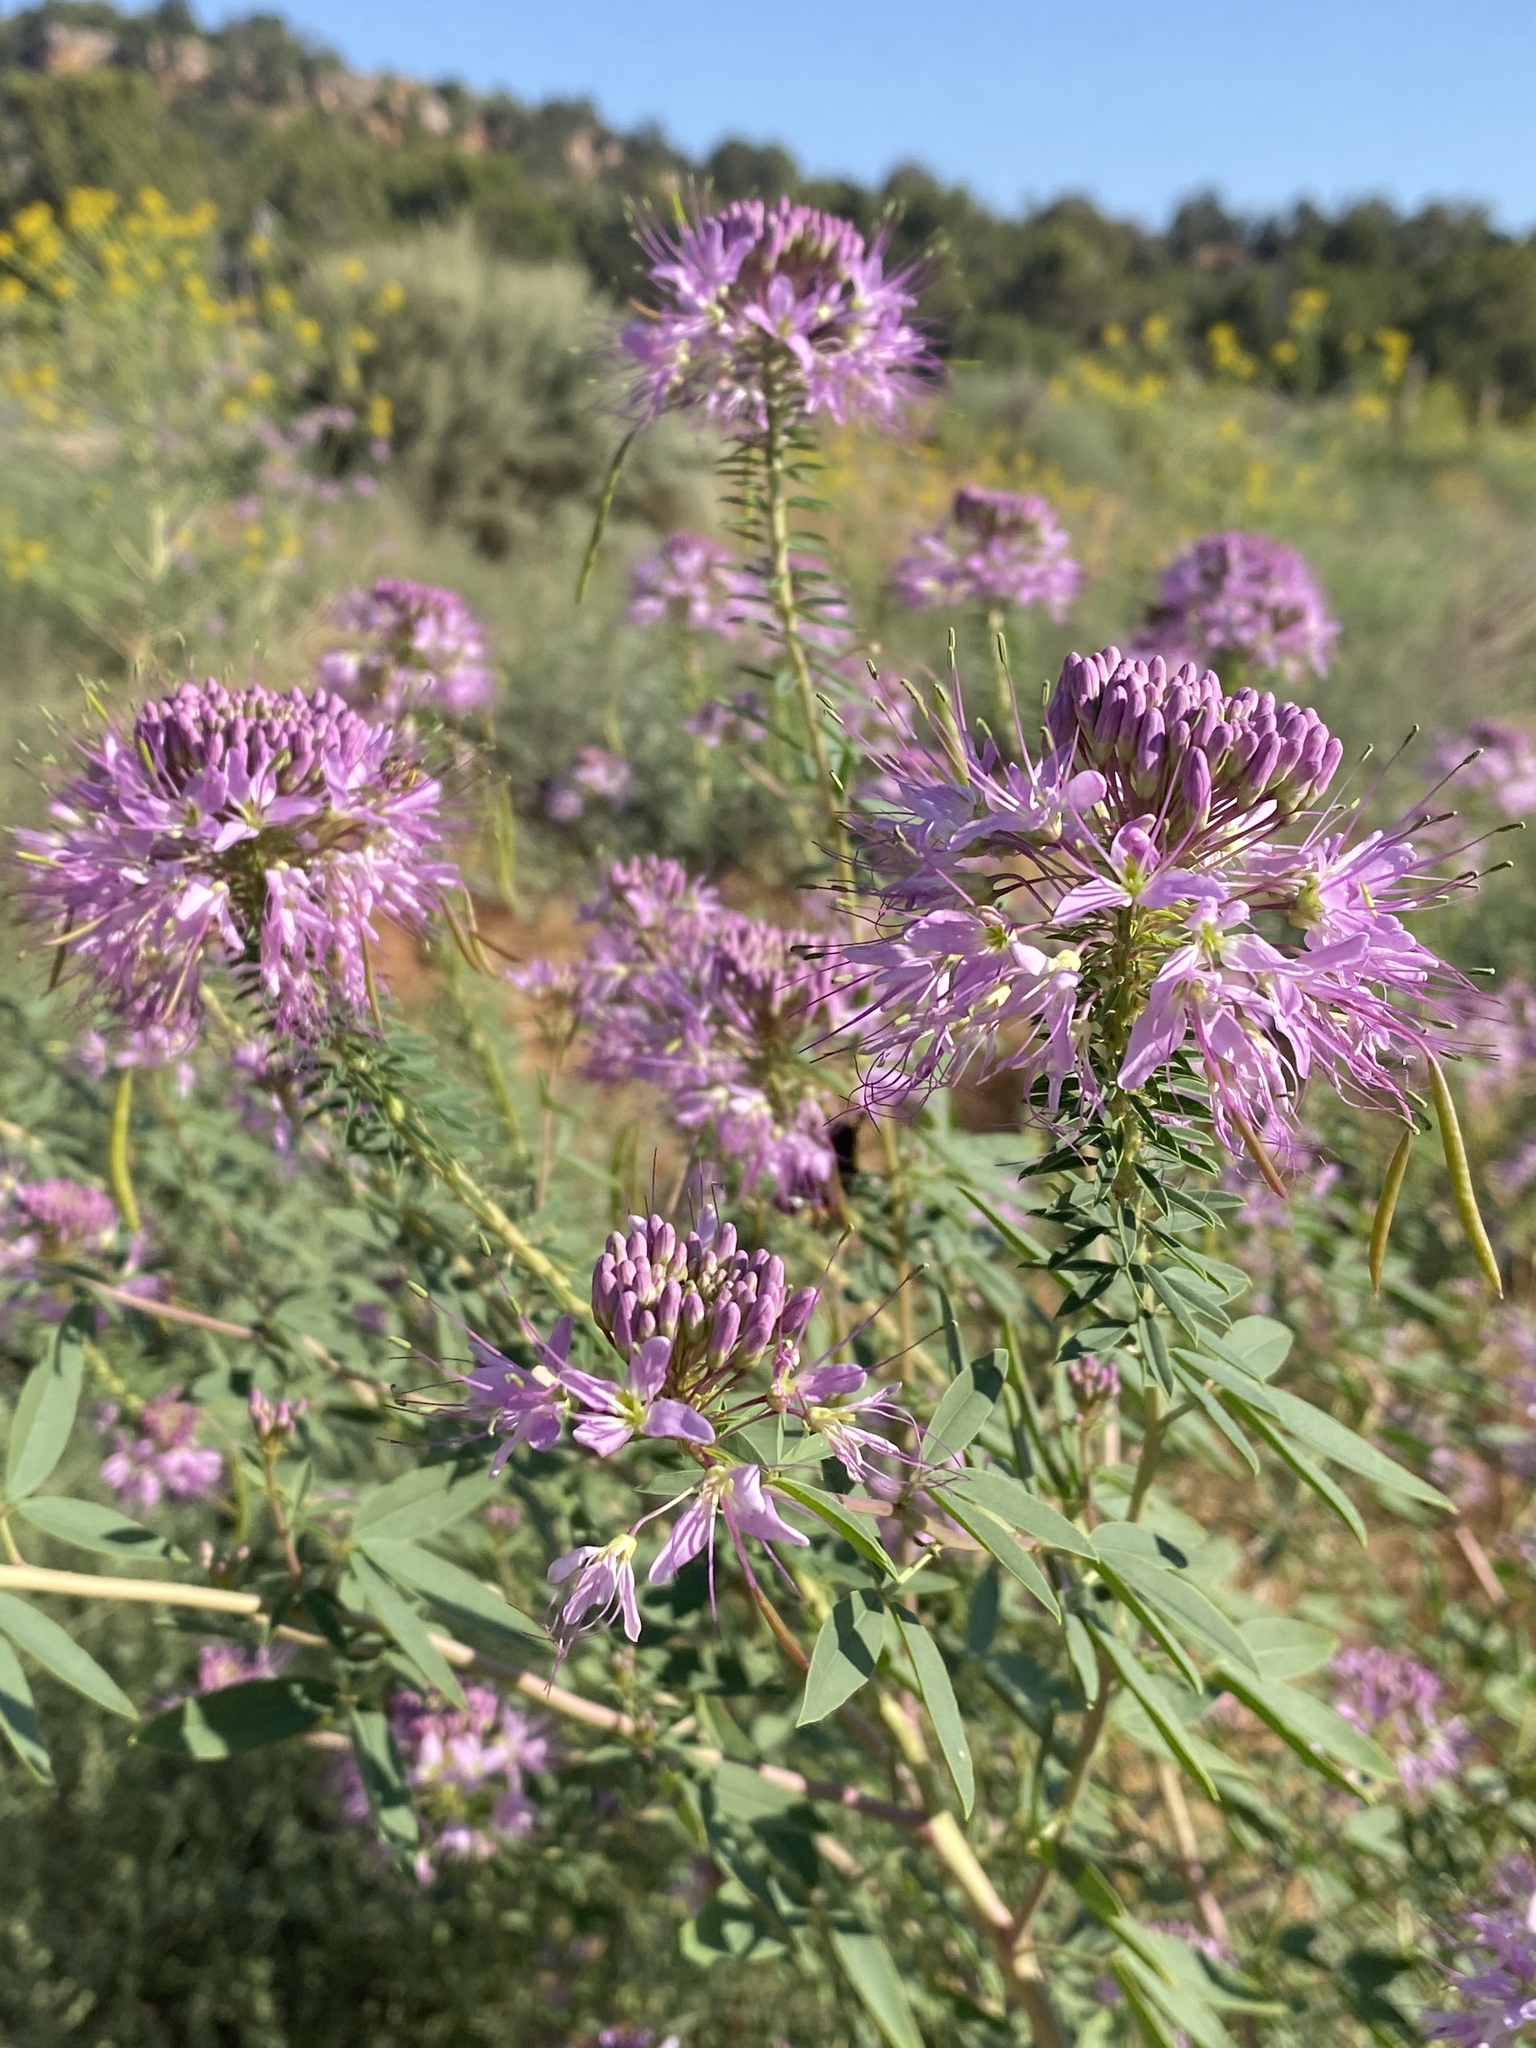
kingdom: Plantae
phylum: Tracheophyta
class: Magnoliopsida
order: Brassicales
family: Cleomaceae
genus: Cleomella
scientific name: Cleomella serrulata
